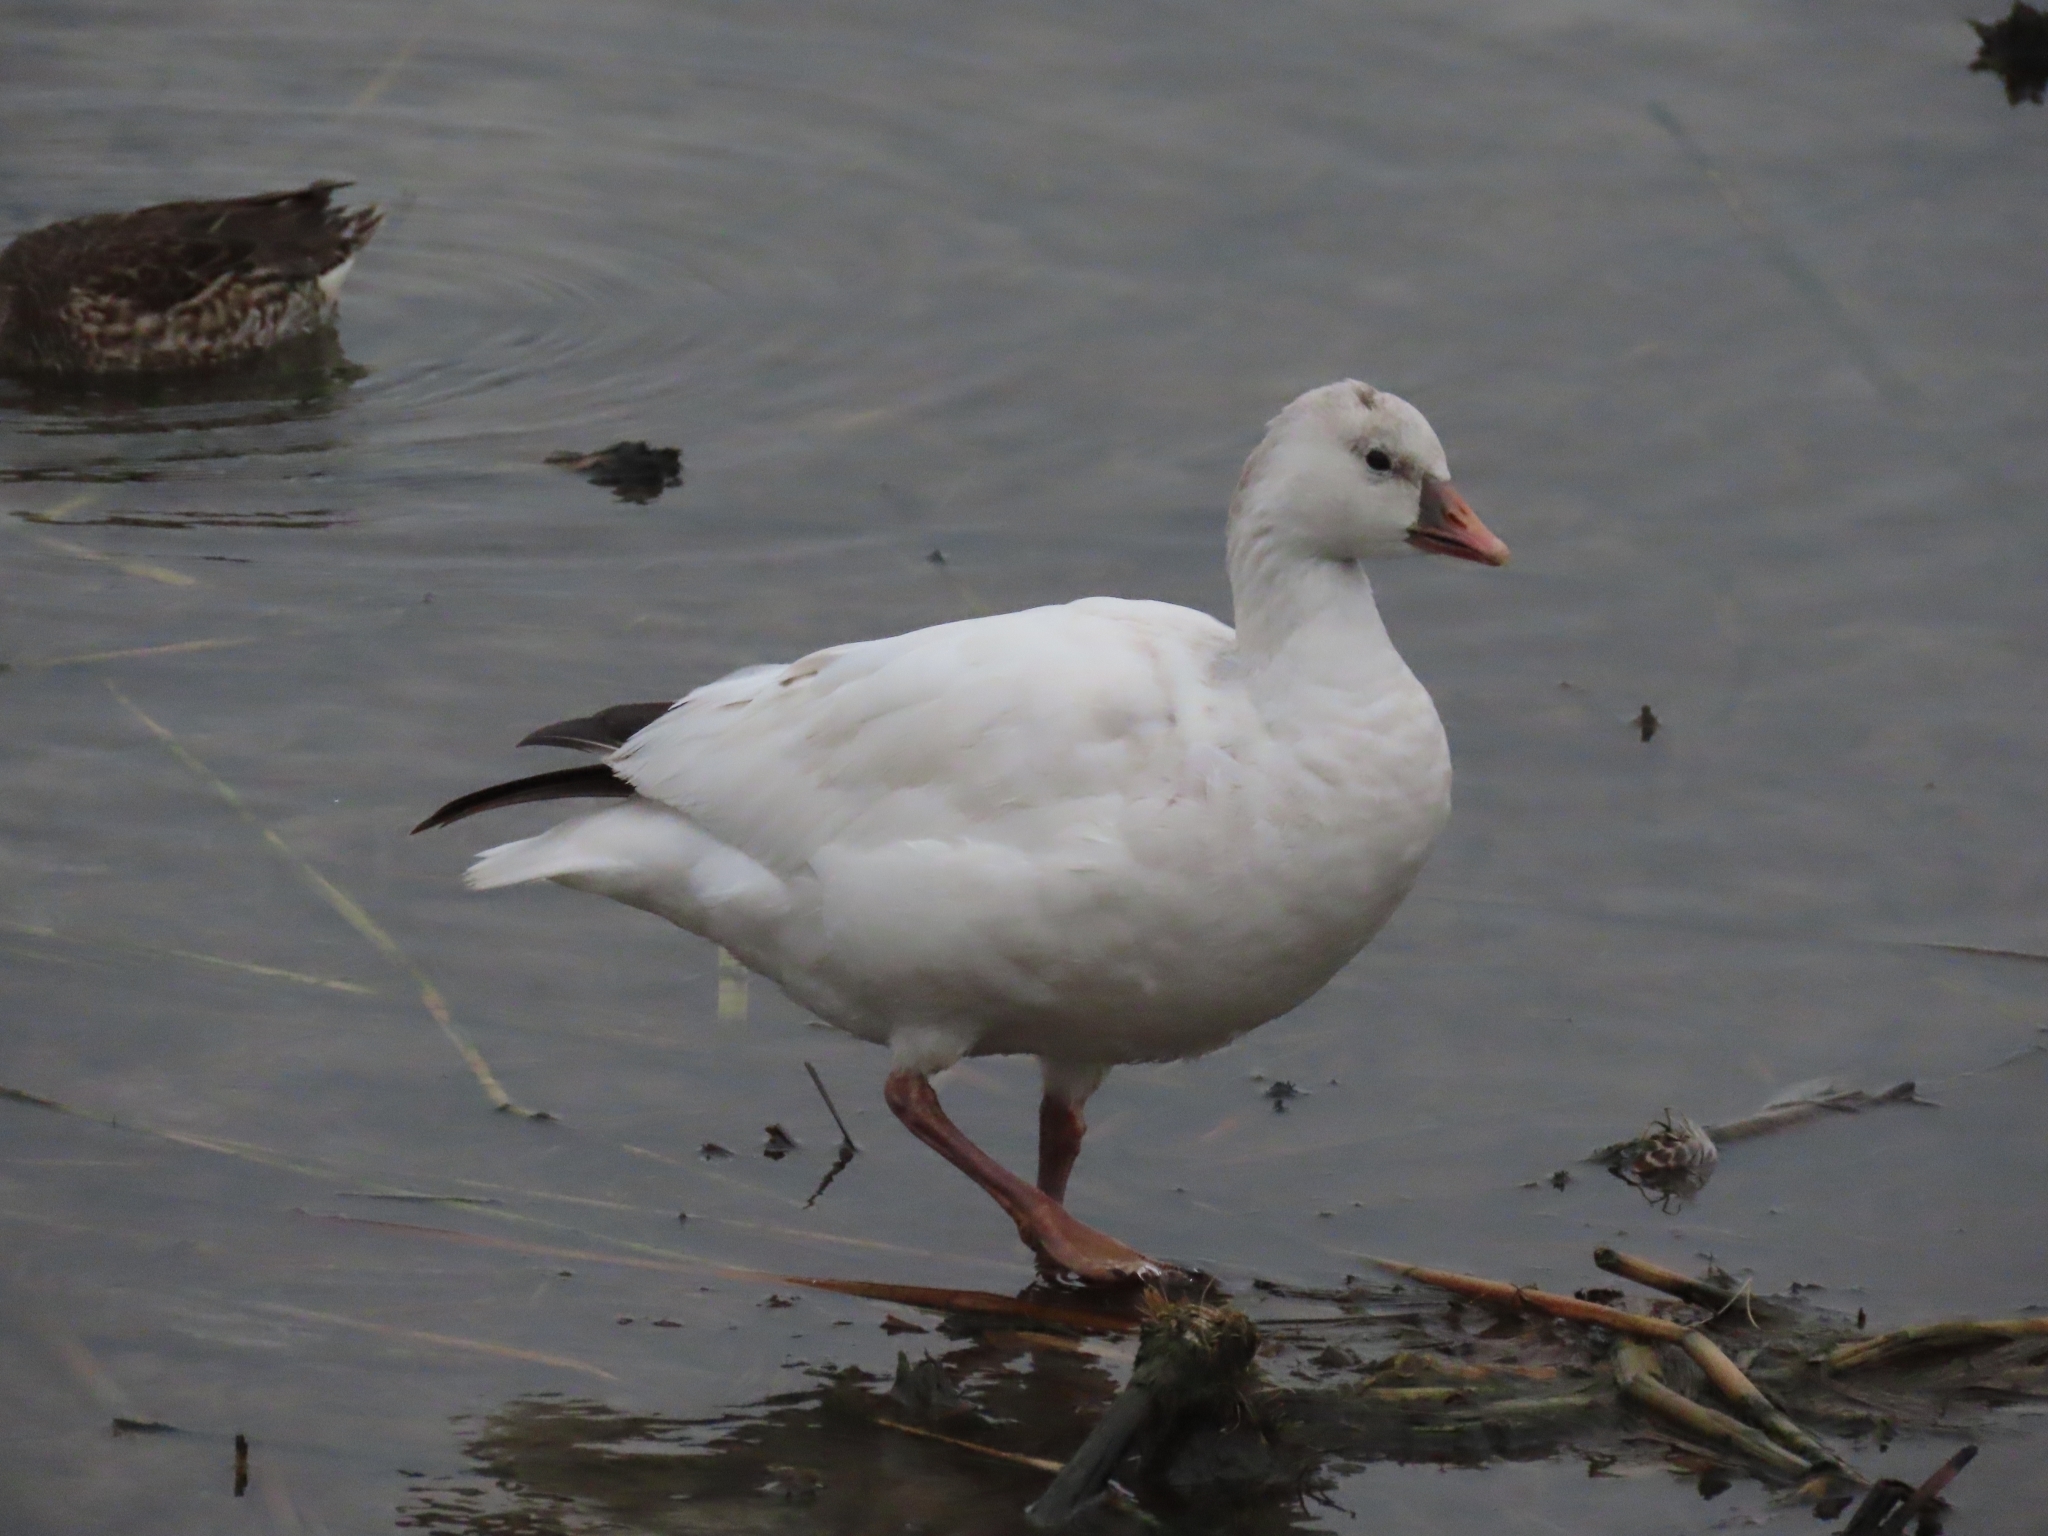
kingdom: Animalia
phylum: Chordata
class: Aves
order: Anseriformes
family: Anatidae
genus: Anser
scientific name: Anser rossii
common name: Ross's goose
